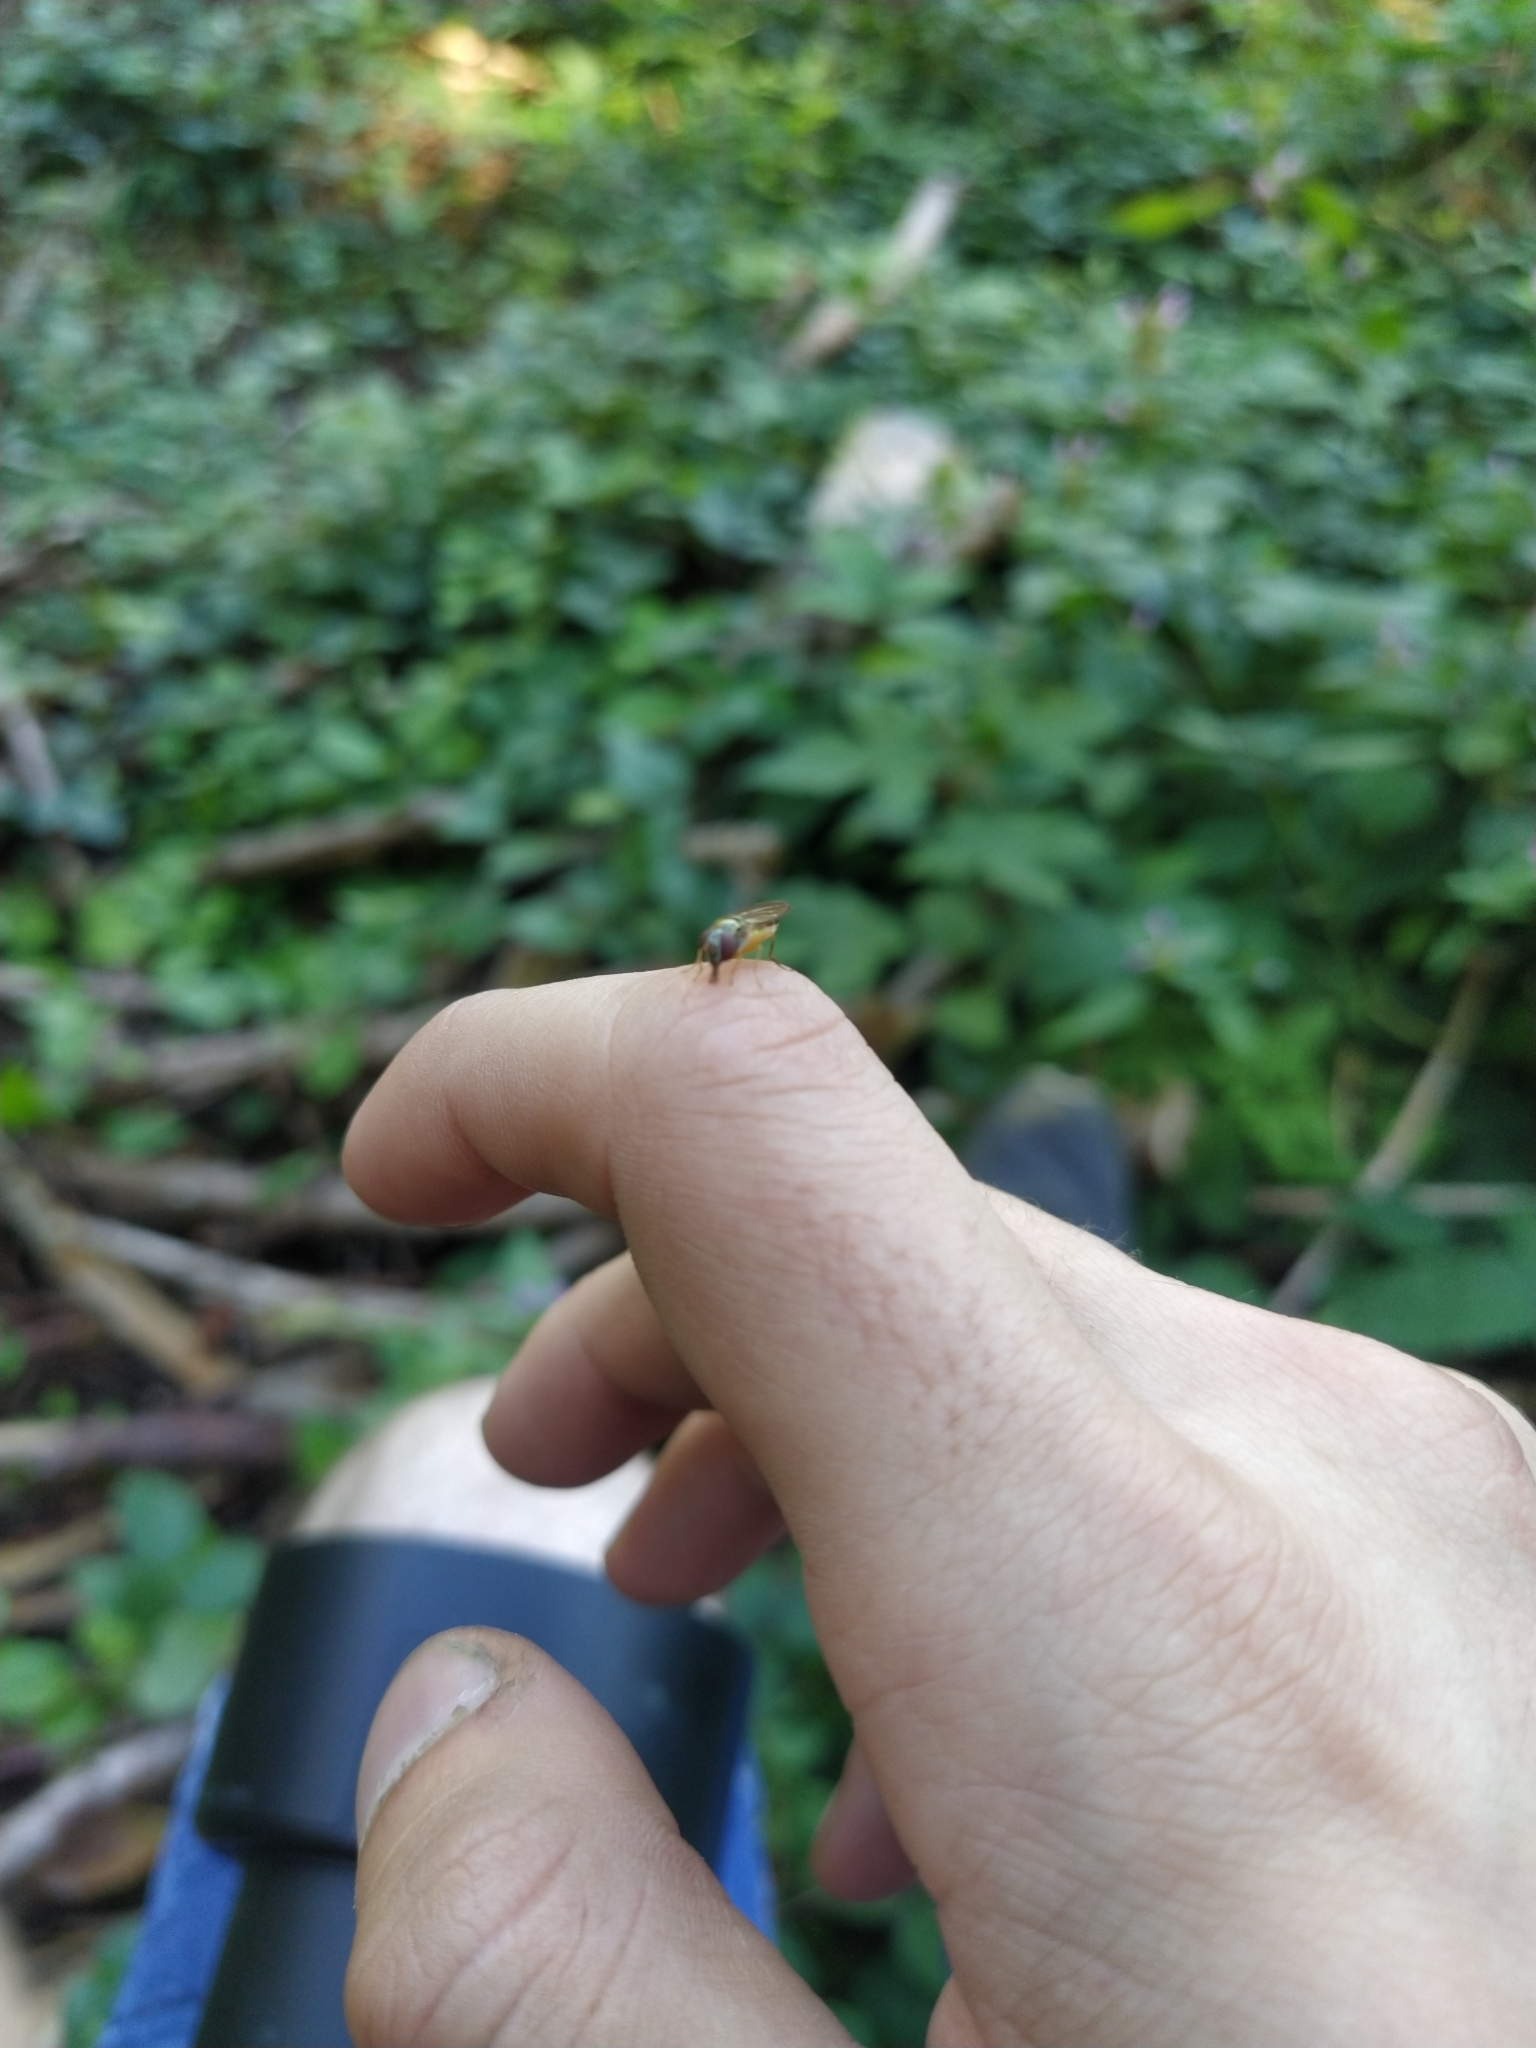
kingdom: Animalia
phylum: Arthropoda
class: Insecta
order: Diptera
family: Syrphidae
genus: Melanostoma
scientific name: Melanostoma scalare
